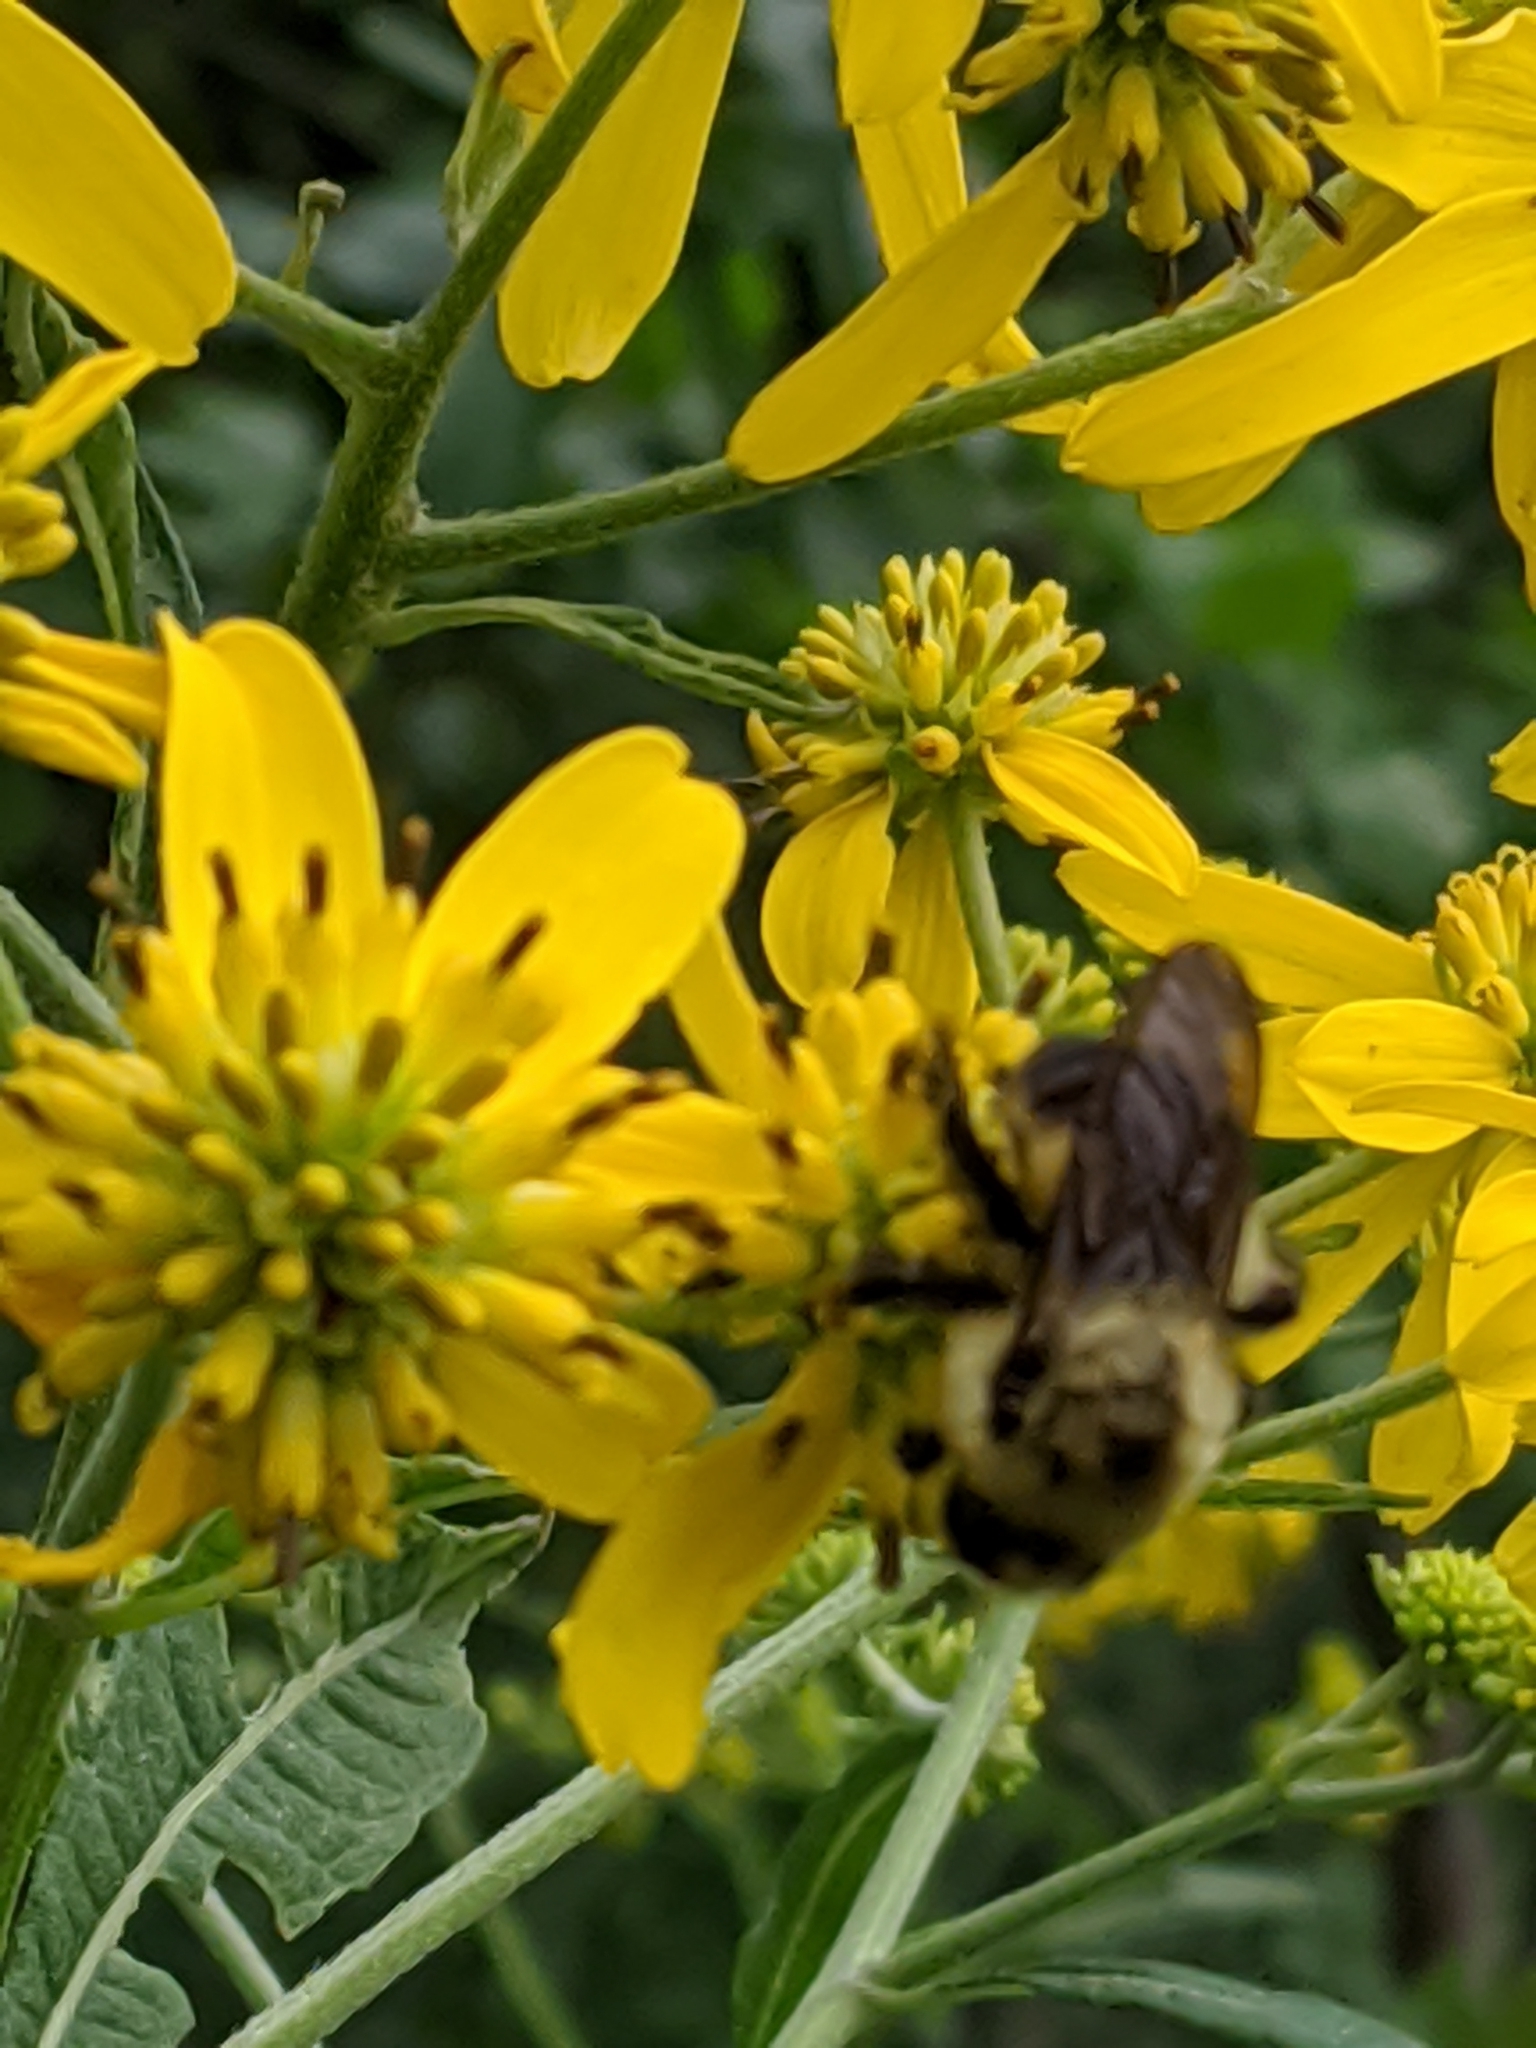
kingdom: Animalia
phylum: Arthropoda
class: Insecta
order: Hymenoptera
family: Apidae
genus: Bombus
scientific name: Bombus griseocollis
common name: Brown-belted bumble bee
